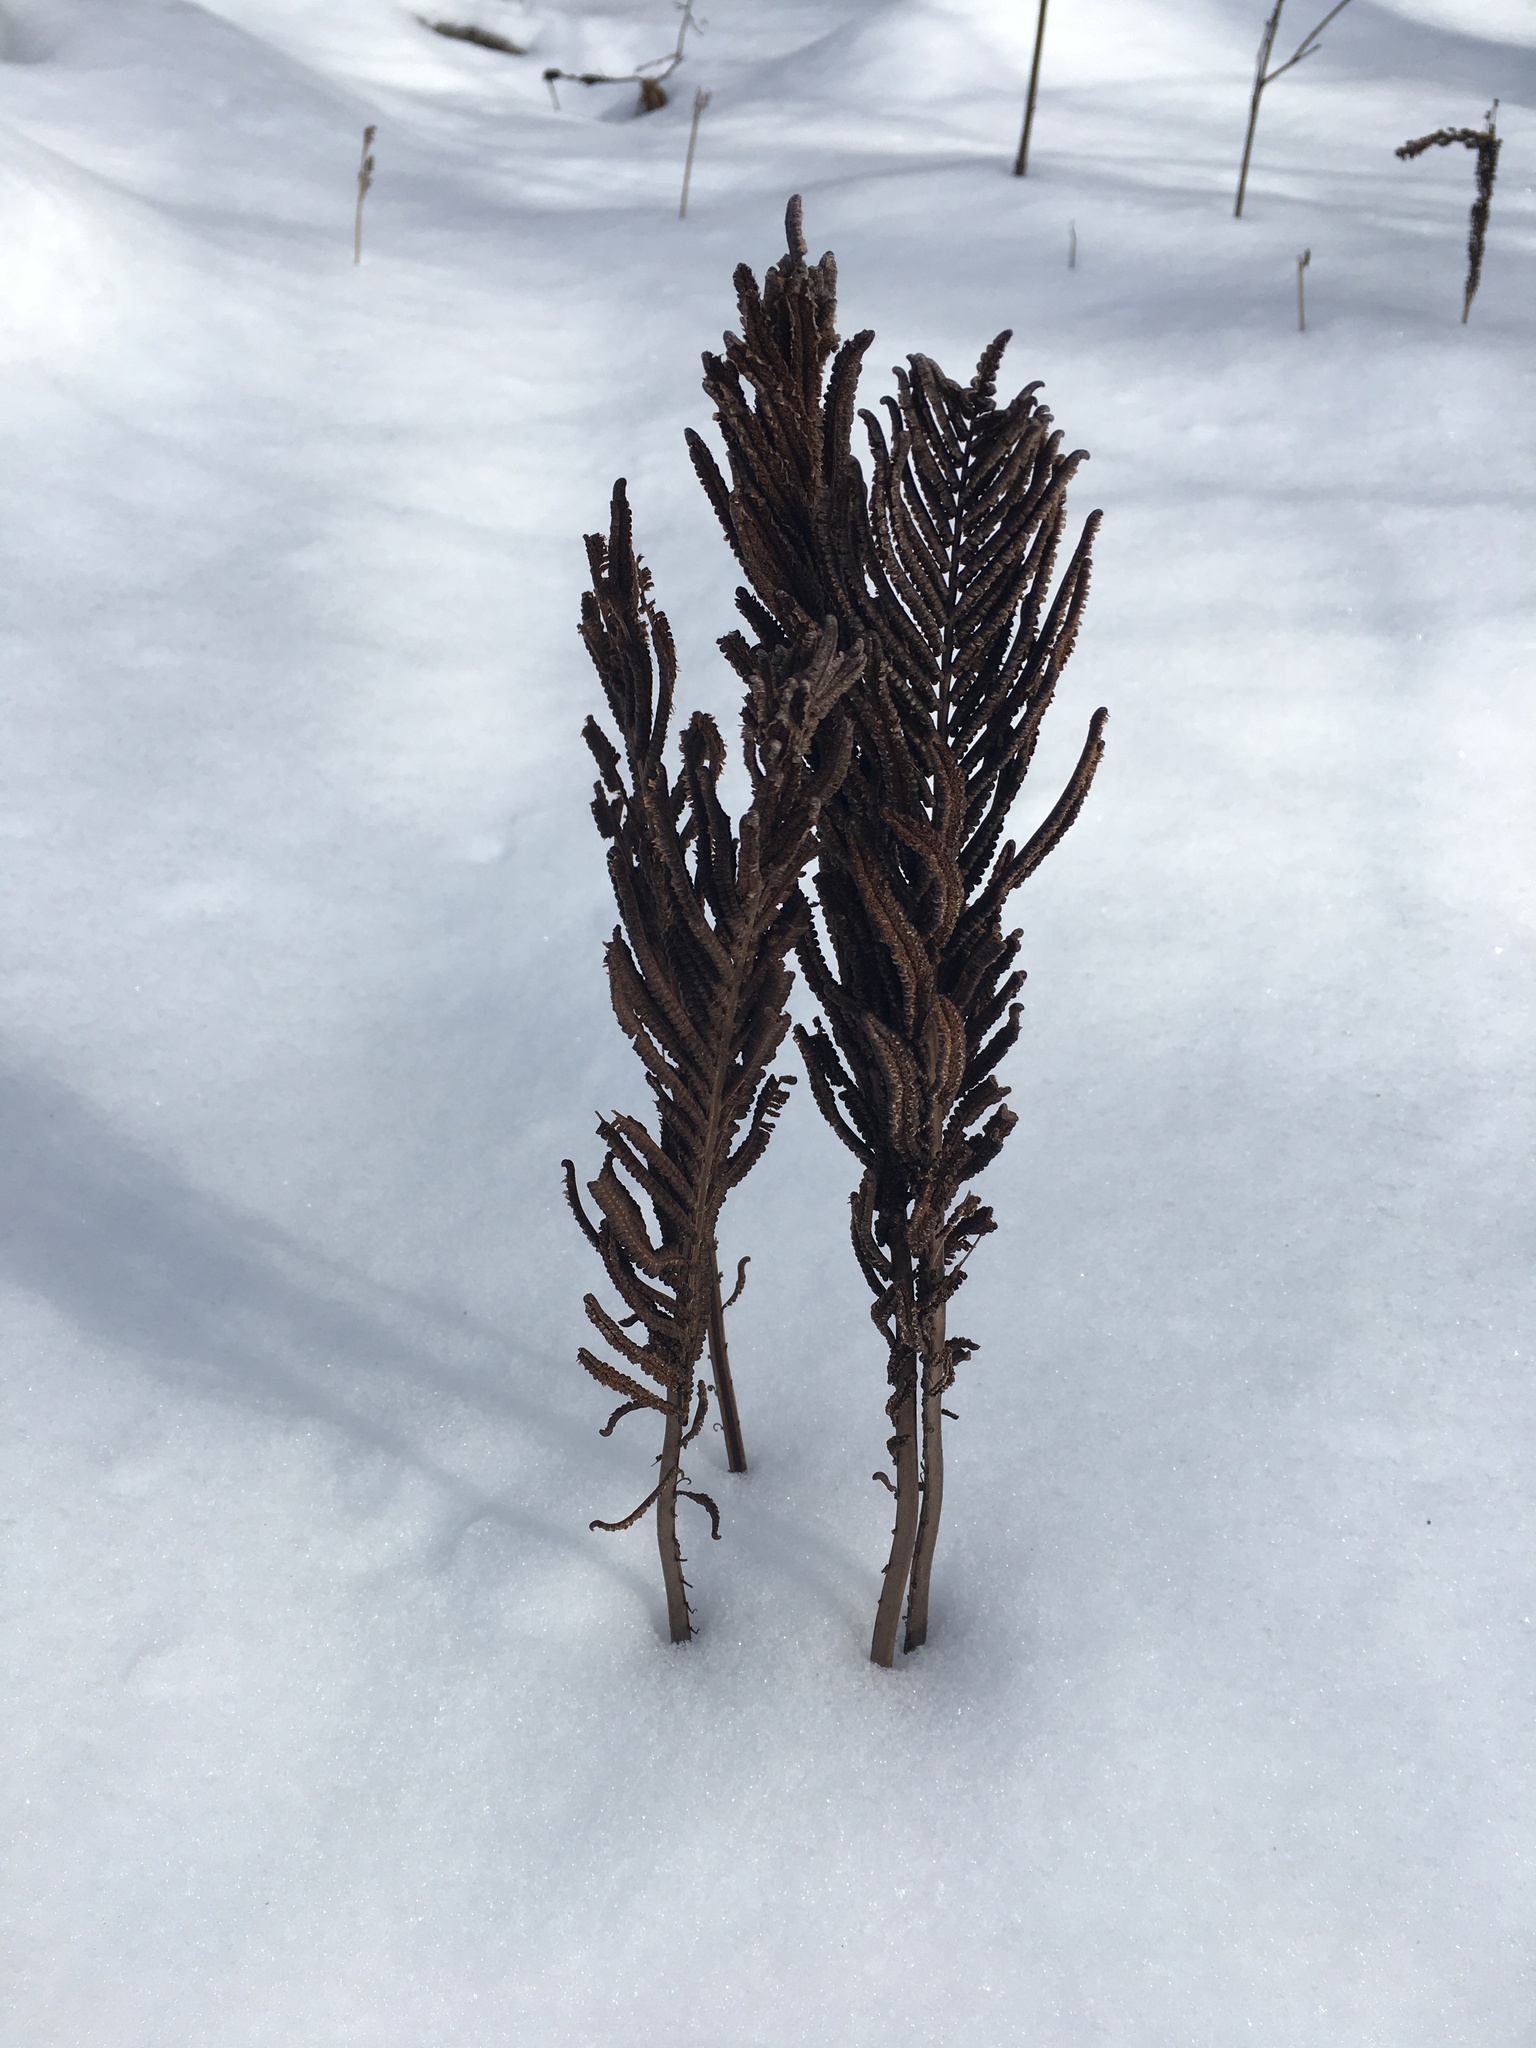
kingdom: Plantae
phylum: Tracheophyta
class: Polypodiopsida
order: Polypodiales
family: Onocleaceae
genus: Matteuccia
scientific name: Matteuccia struthiopteris
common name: Ostrich fern
